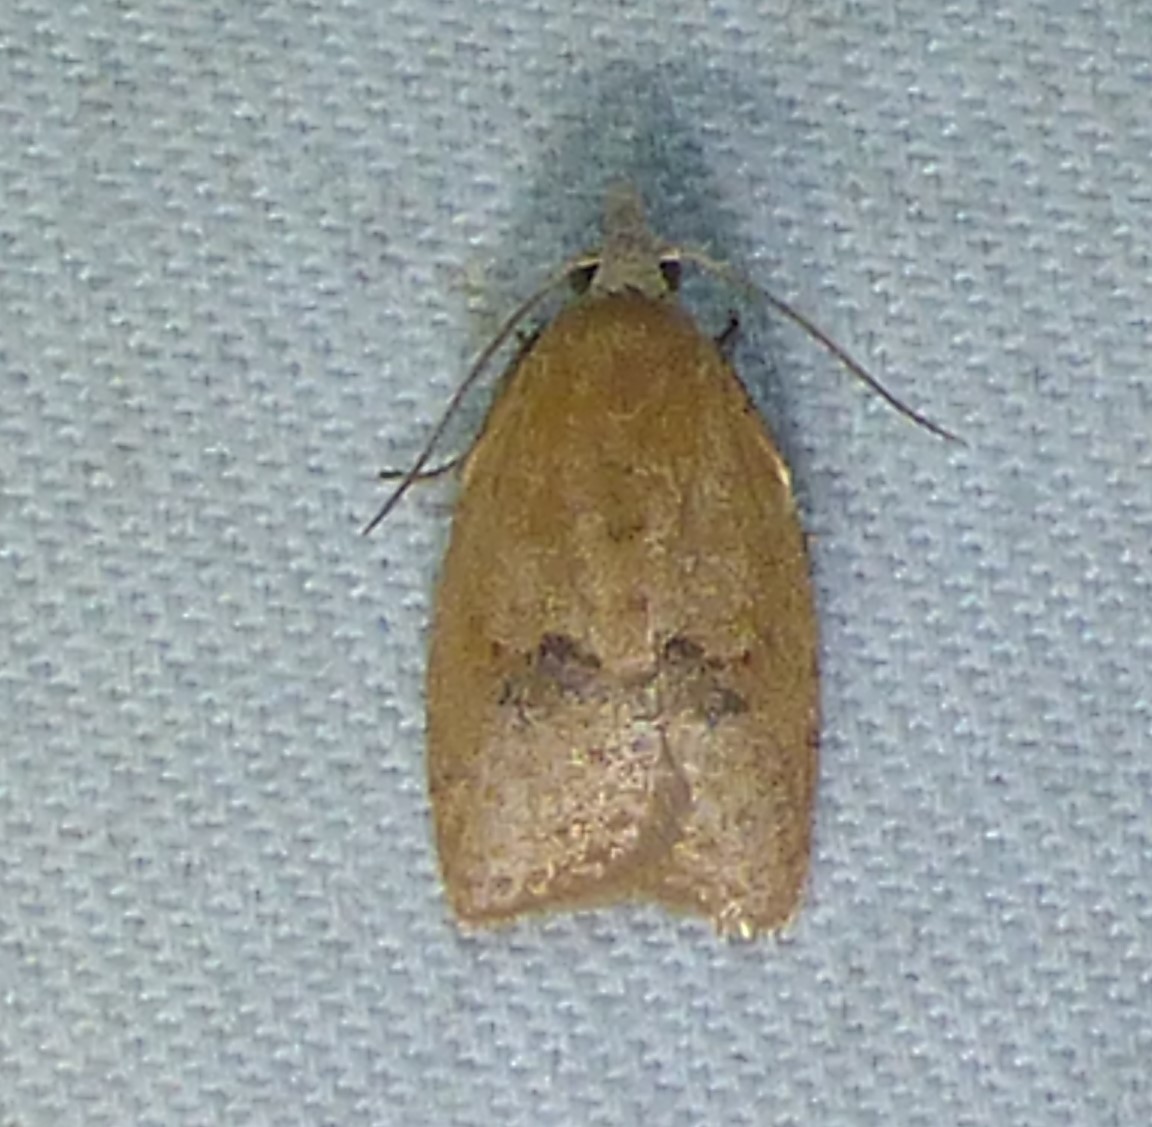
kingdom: Animalia
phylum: Arthropoda
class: Insecta
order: Lepidoptera
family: Tortricidae
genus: Sparganothoides
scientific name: Sparganothoides lentiginosana
